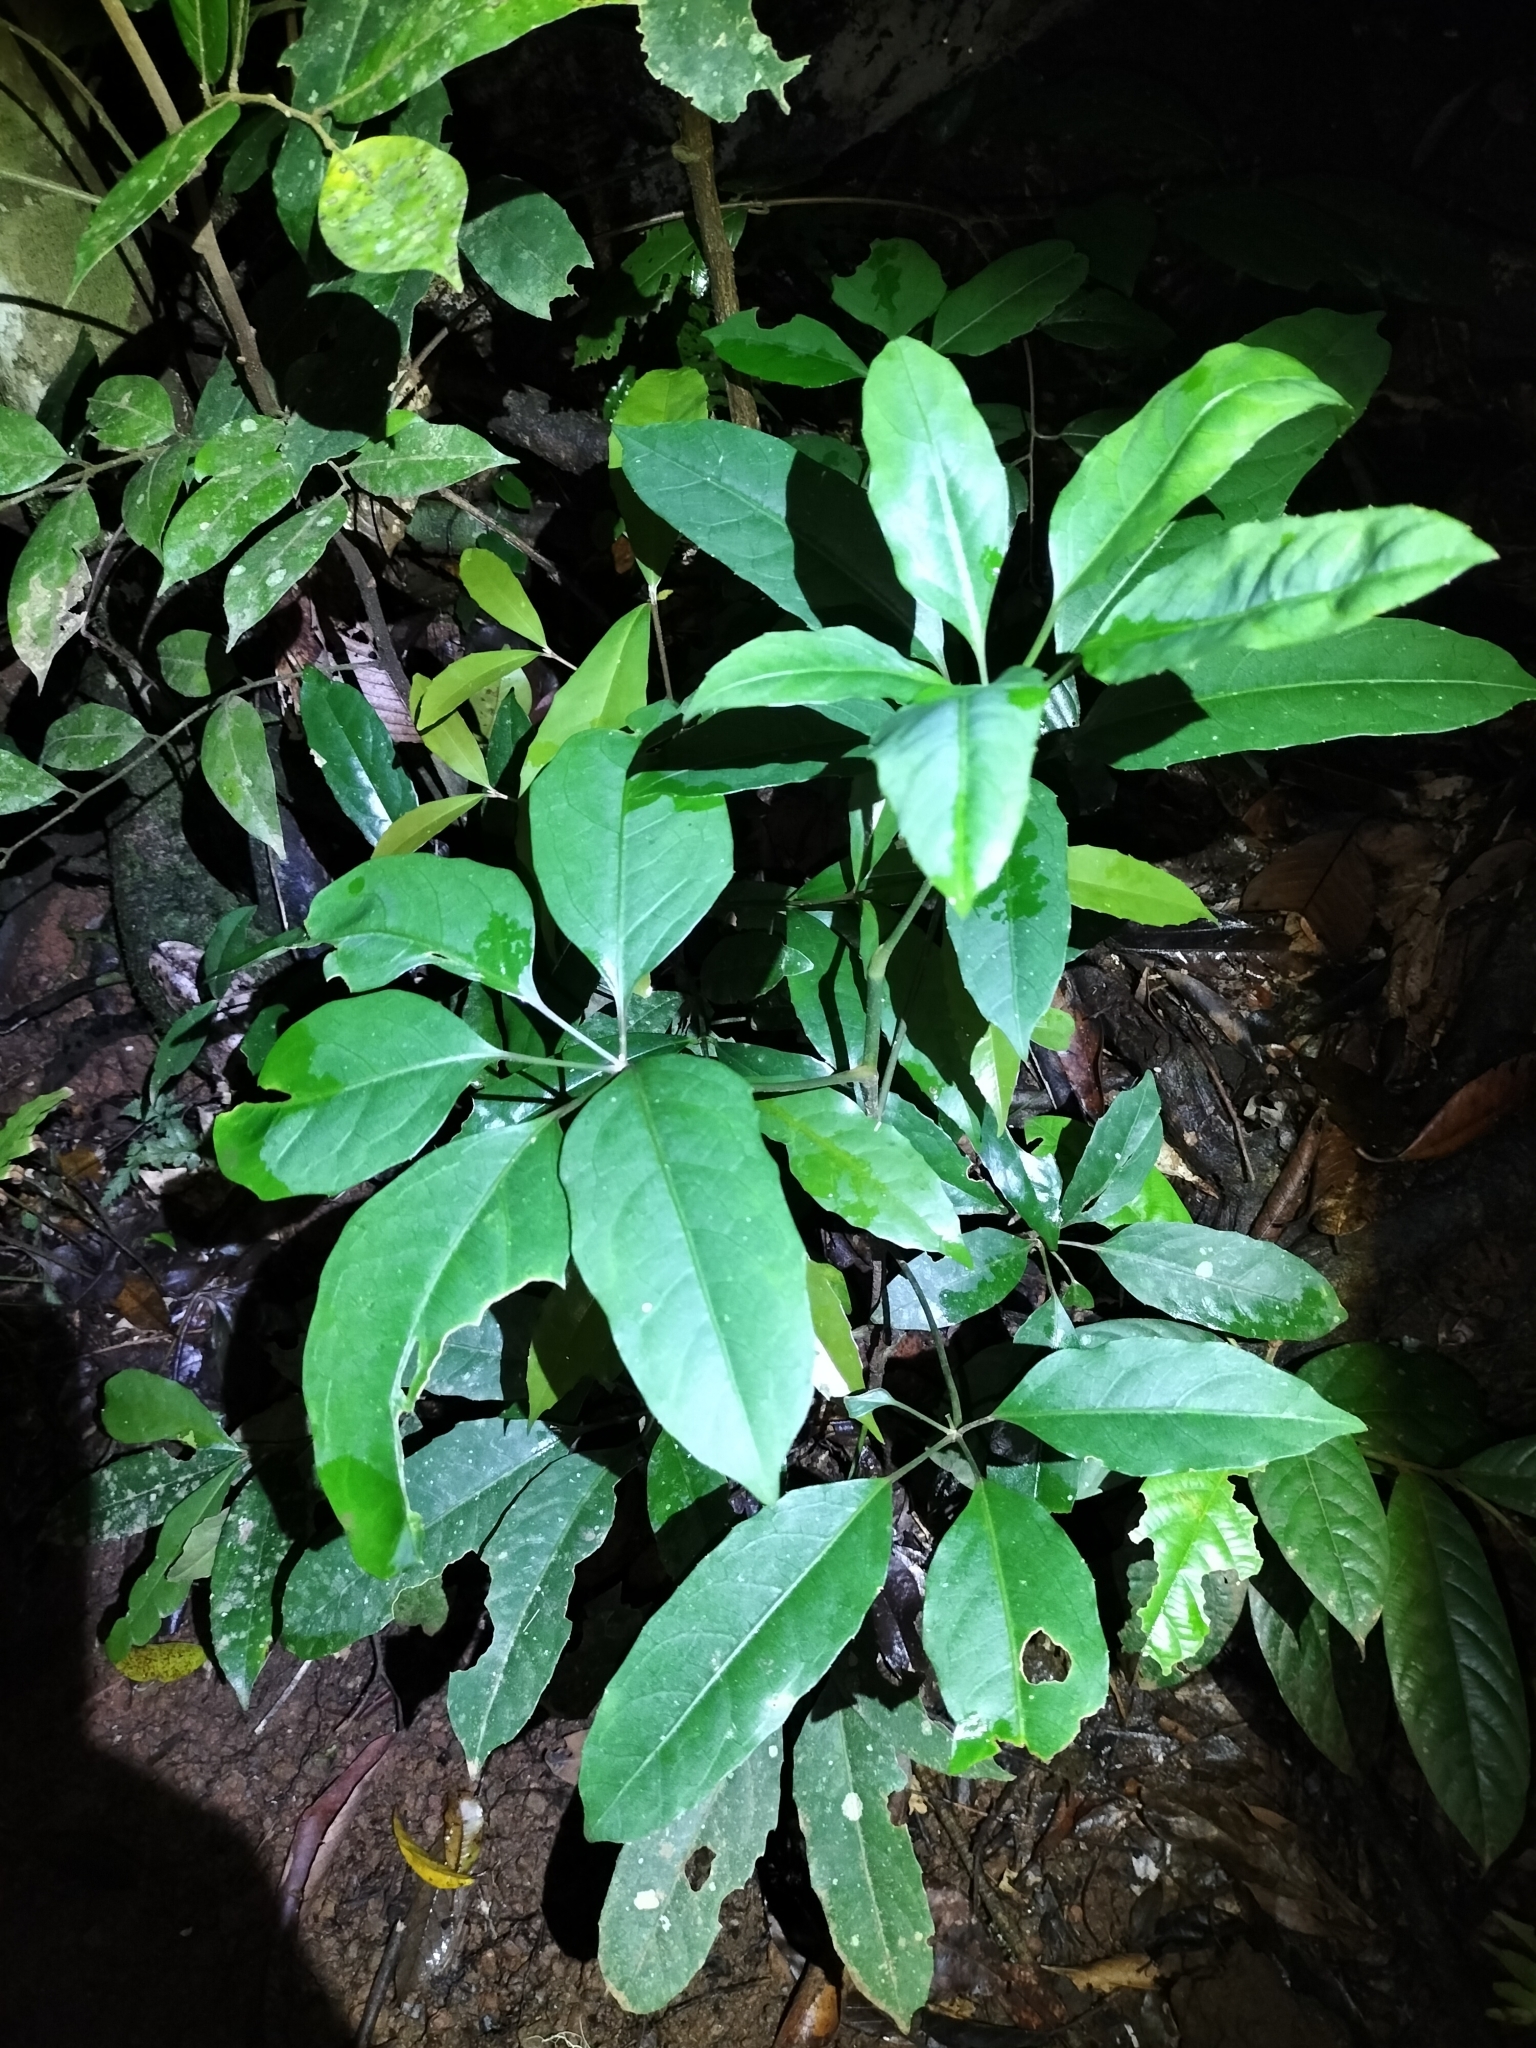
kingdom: Plantae
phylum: Tracheophyta
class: Magnoliopsida
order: Apiales
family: Apiaceae
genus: Mackinlaya
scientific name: Mackinlaya confusa
